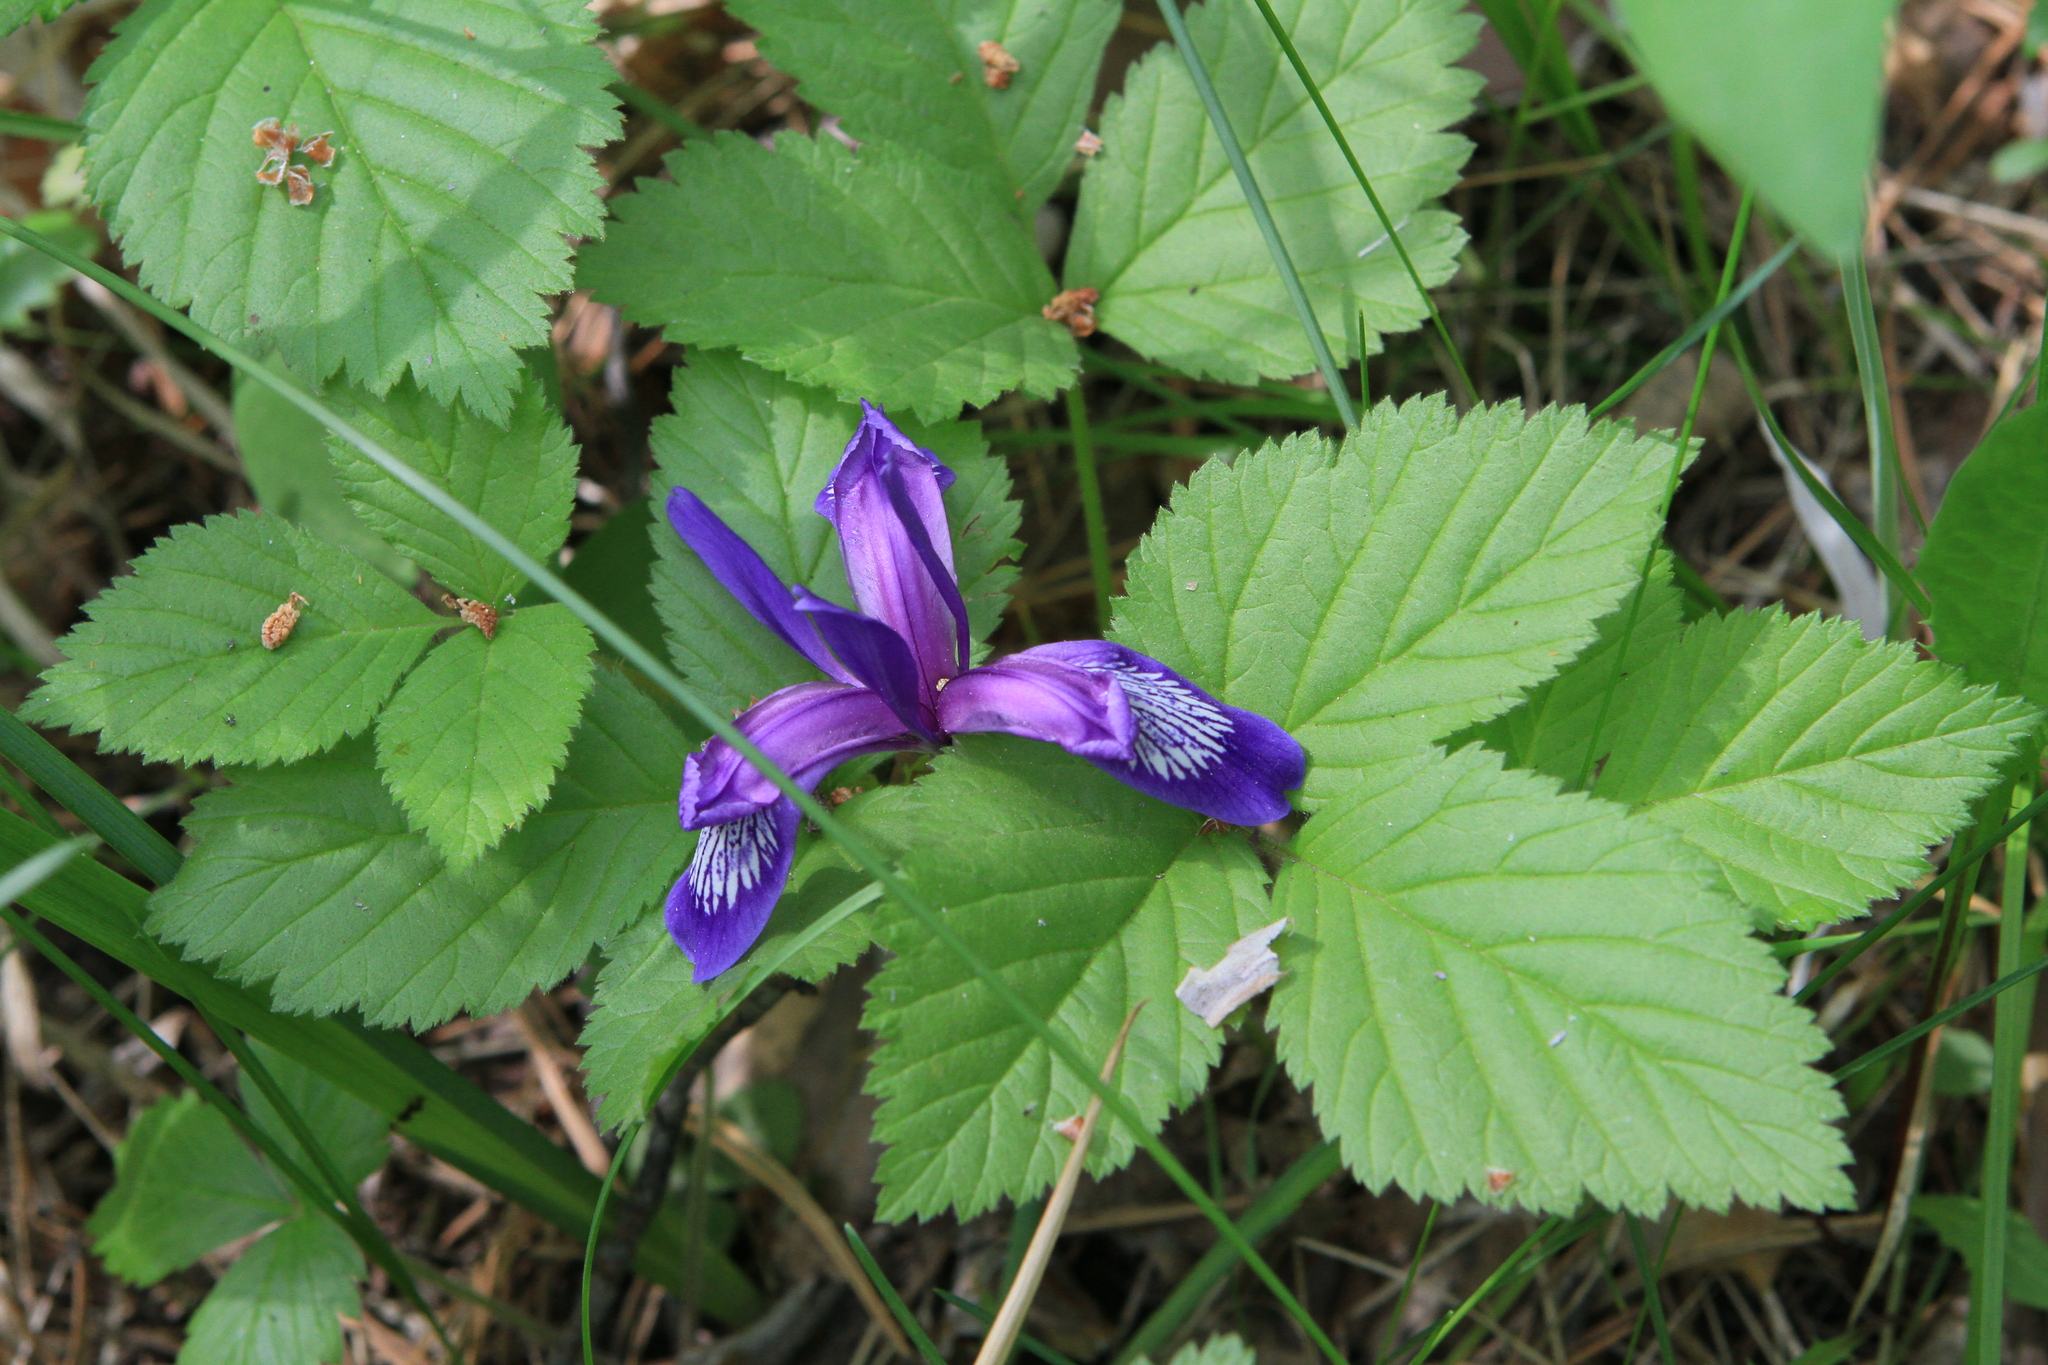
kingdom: Plantae
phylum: Tracheophyta
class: Magnoliopsida
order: Rosales
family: Rosaceae
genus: Rubus
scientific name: Rubus saxatilis
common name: Stone bramble
